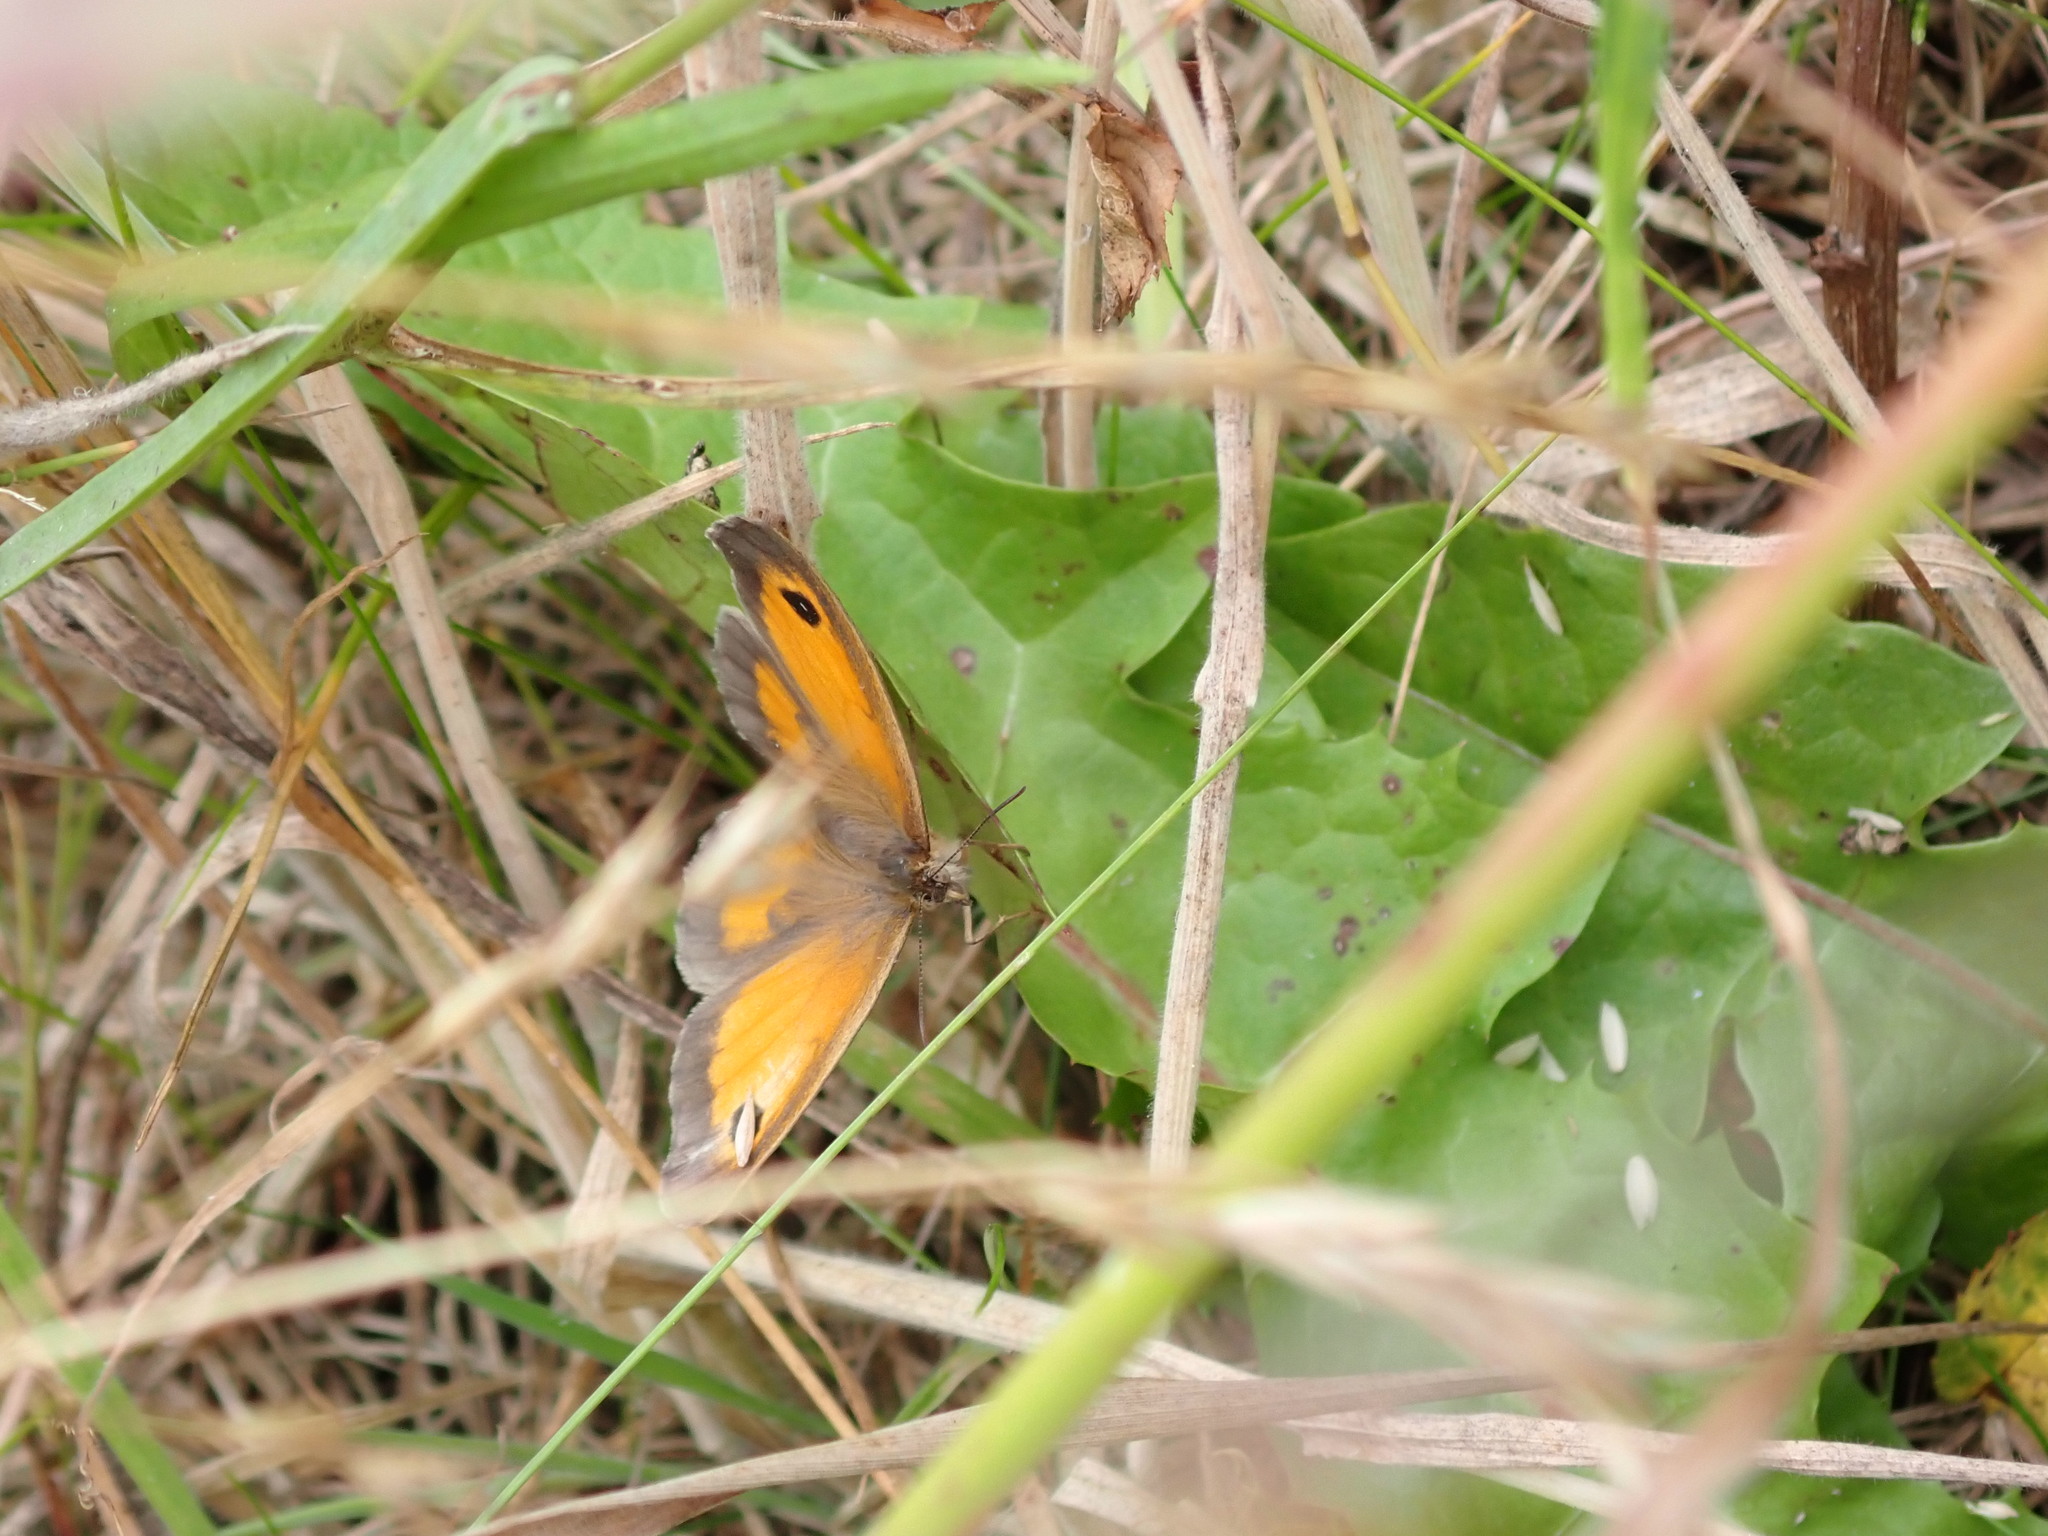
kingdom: Animalia
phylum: Arthropoda
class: Insecta
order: Lepidoptera
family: Nymphalidae
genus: Pyronia
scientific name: Pyronia tithonus
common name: Gatekeeper
